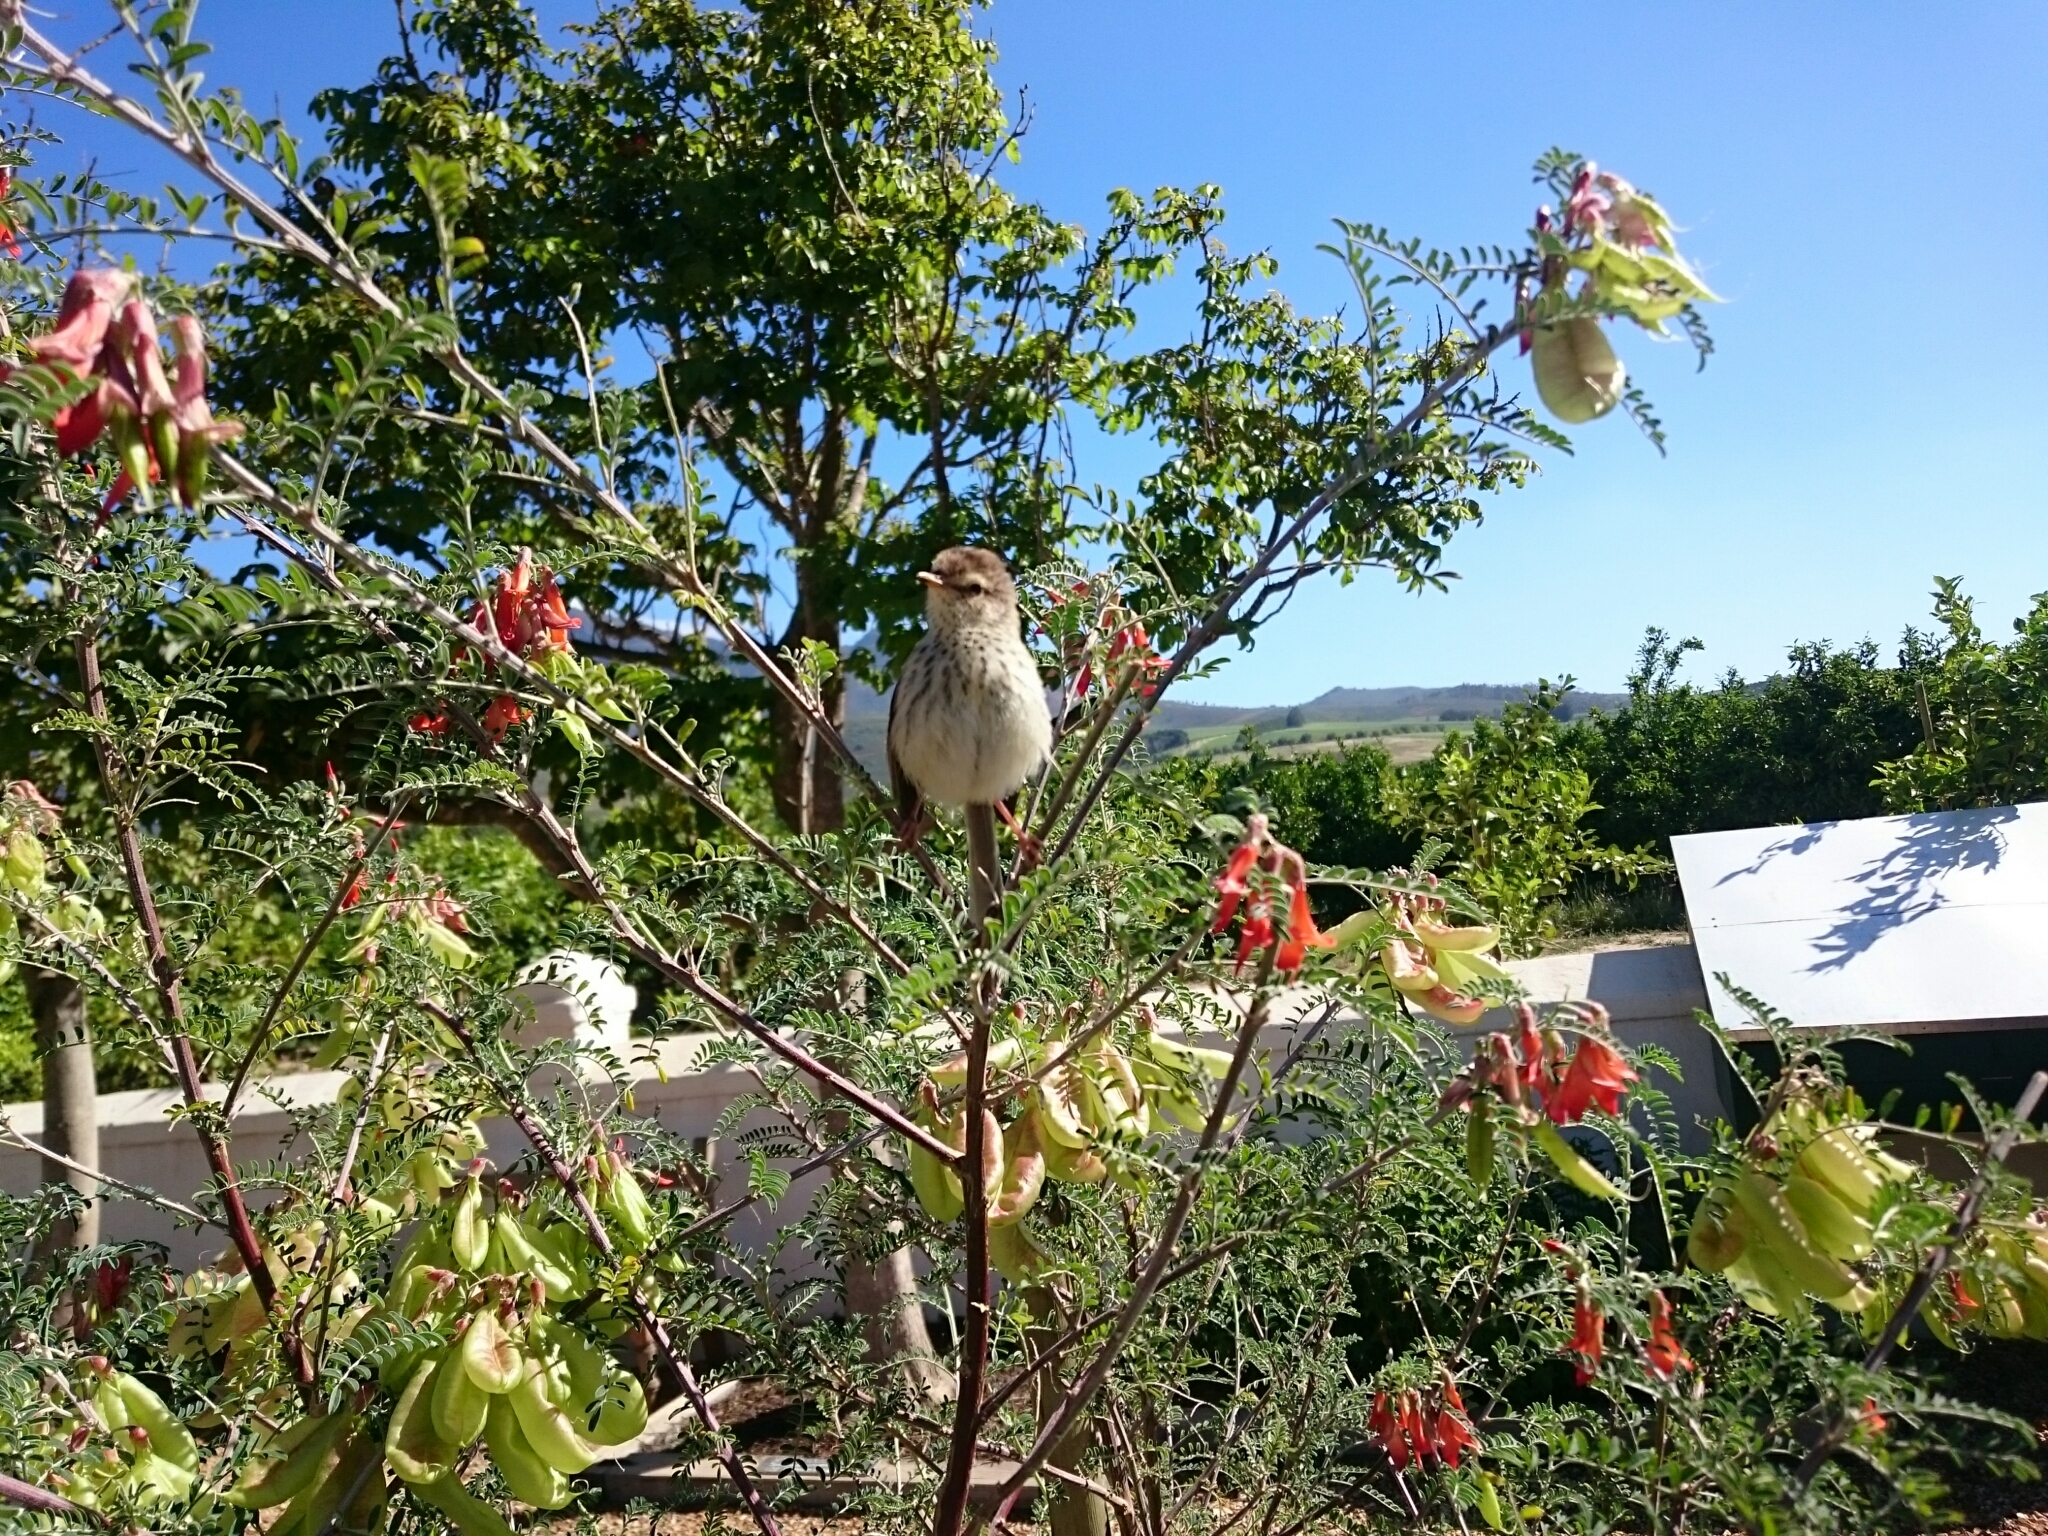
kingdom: Animalia
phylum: Chordata
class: Aves
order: Passeriformes
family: Cisticolidae
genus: Prinia
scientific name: Prinia maculosa
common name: Karoo prinia
